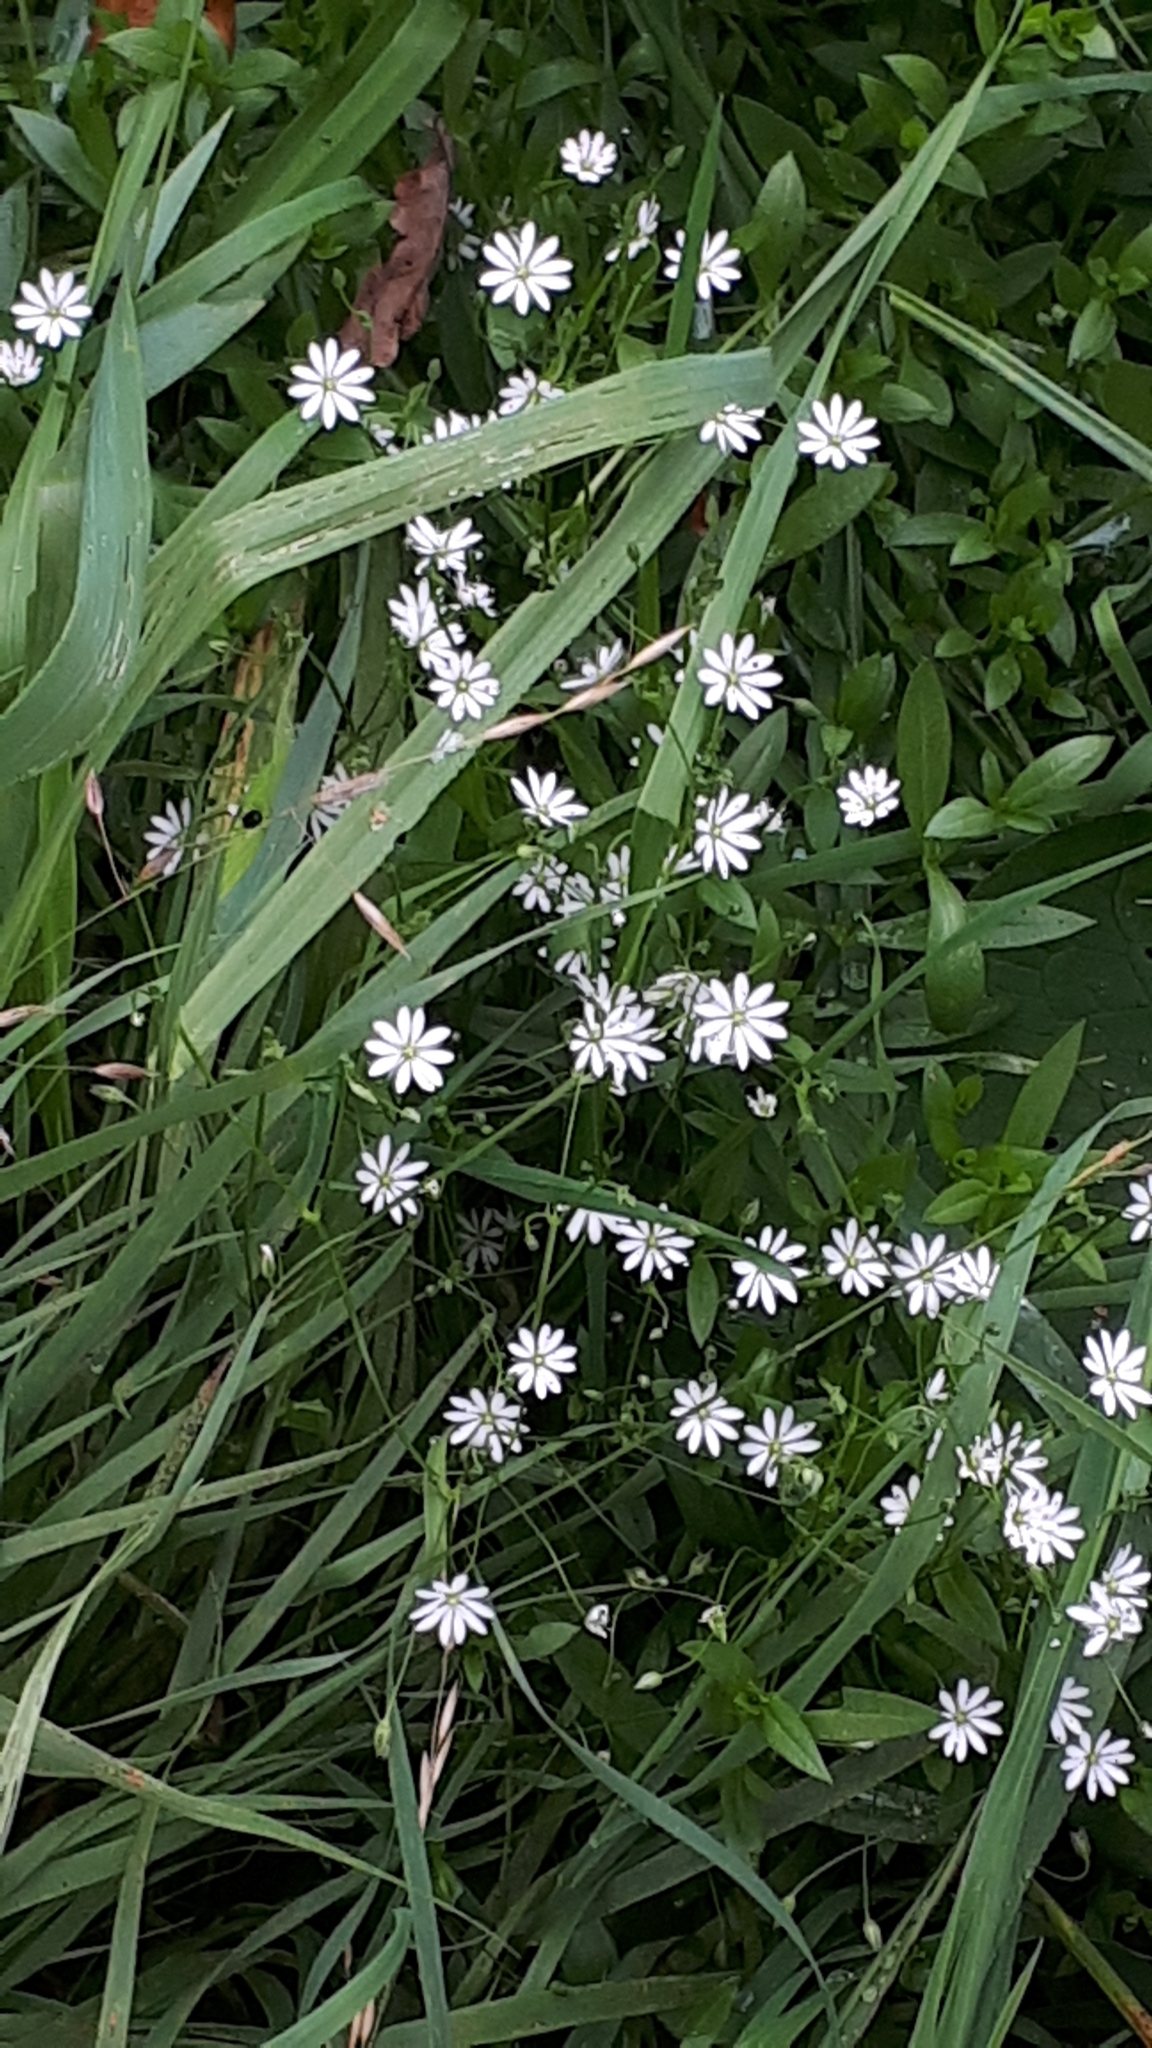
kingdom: Plantae
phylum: Tracheophyta
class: Magnoliopsida
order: Caryophyllales
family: Caryophyllaceae
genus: Stellaria
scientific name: Stellaria graminea
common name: Grass-like starwort
